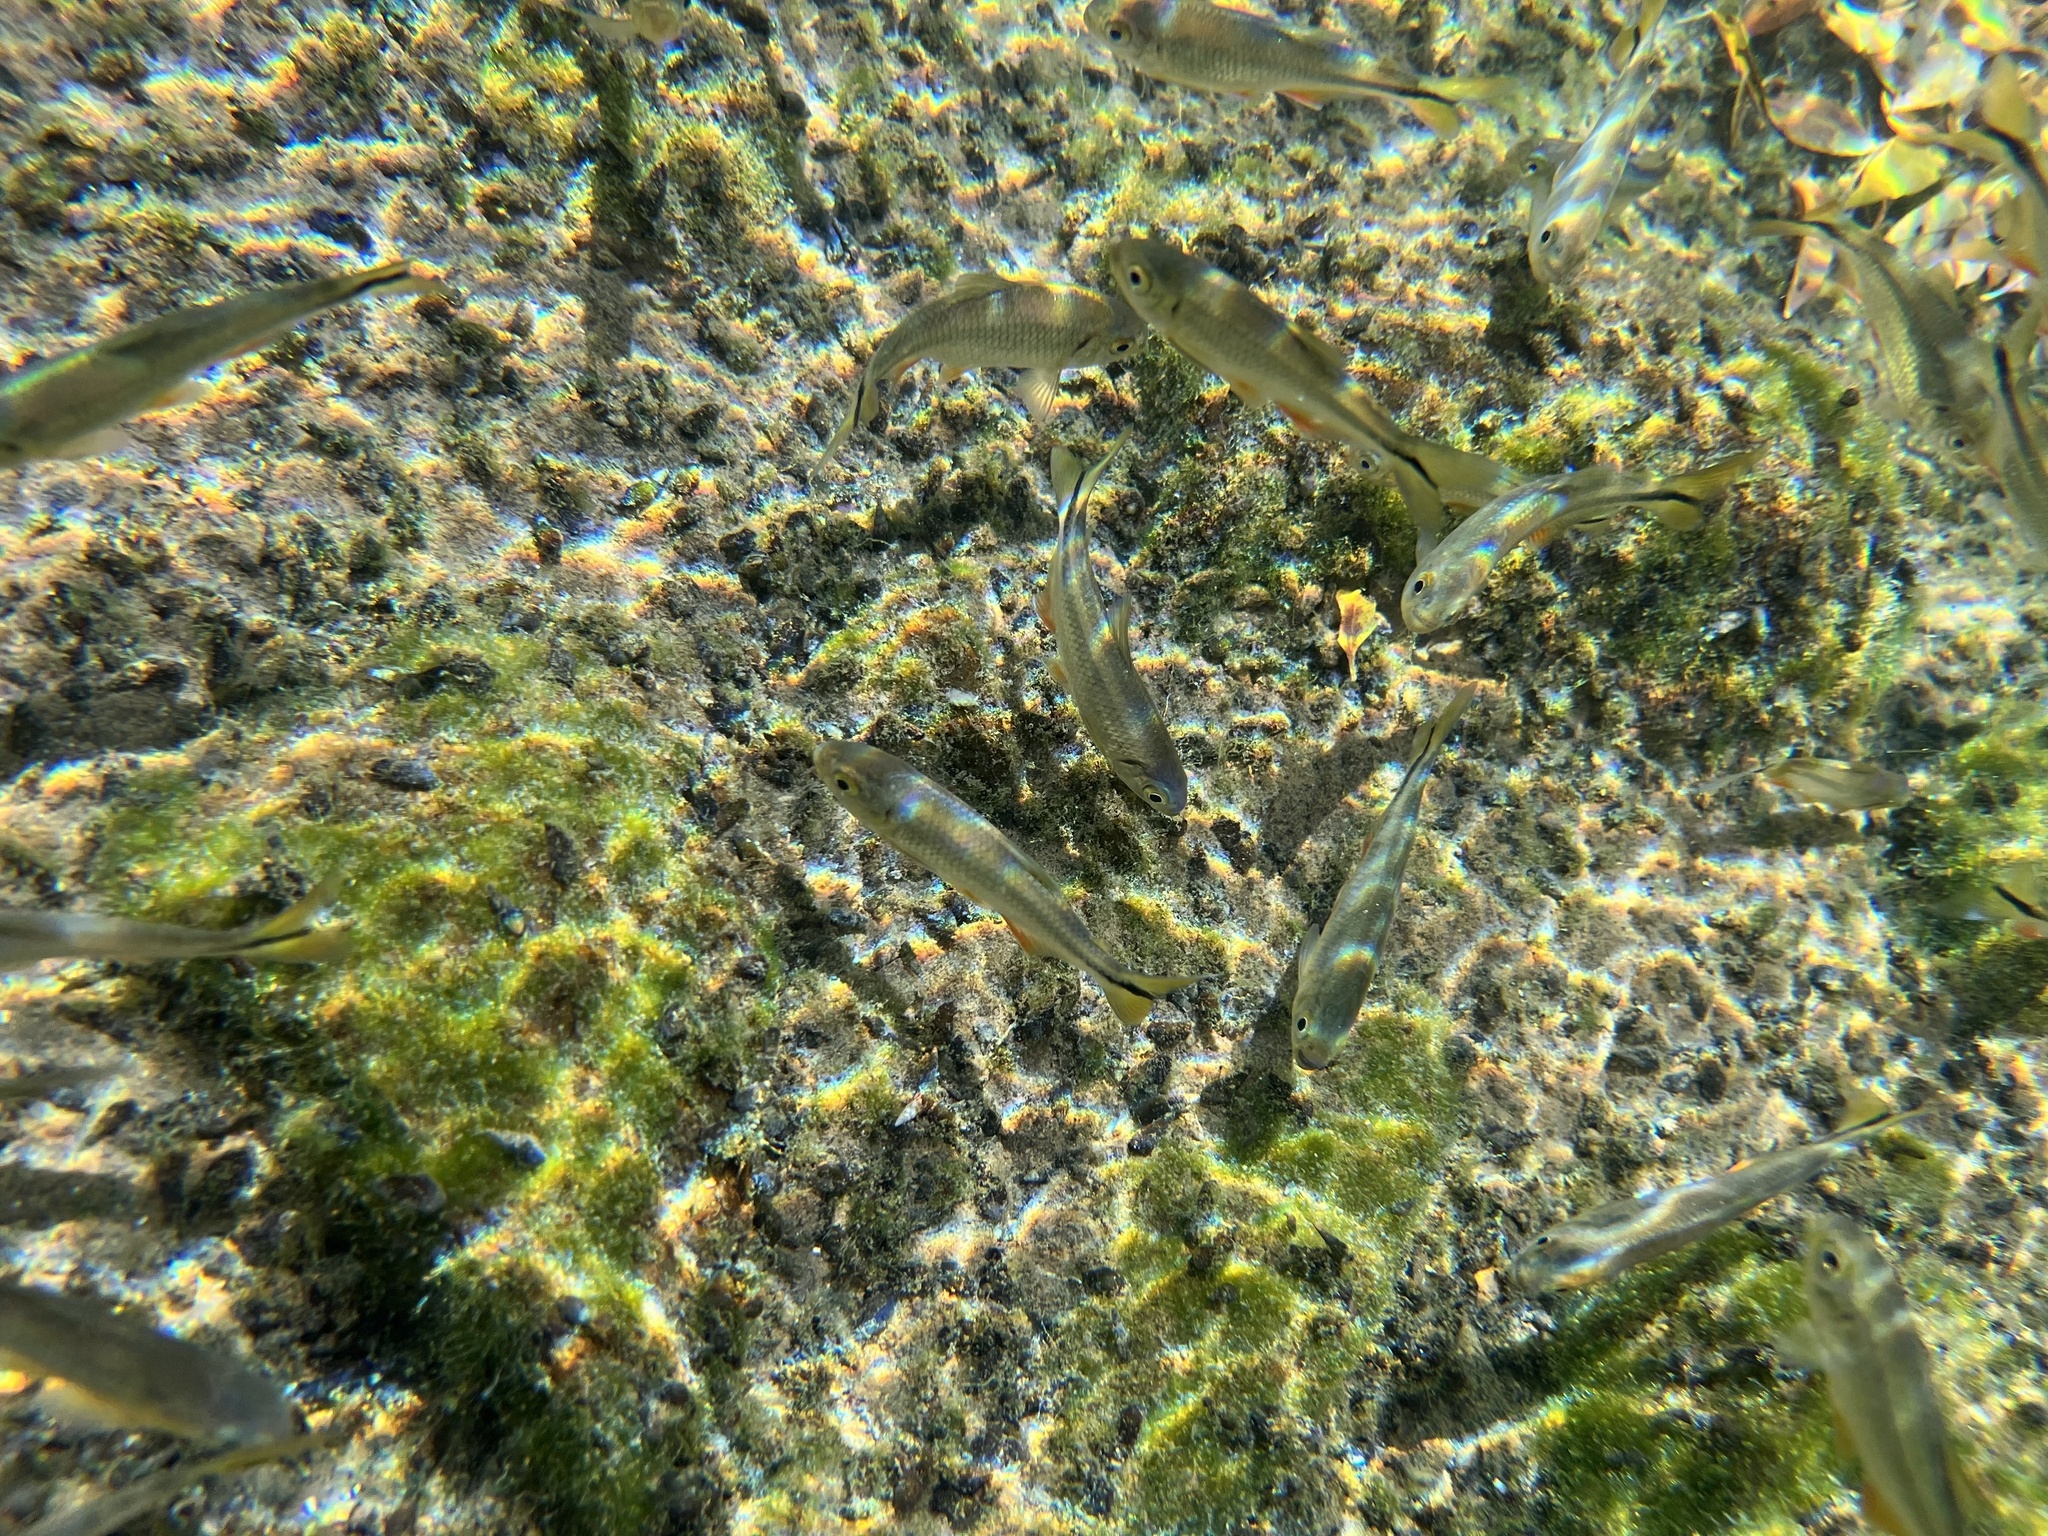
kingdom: Animalia
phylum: Chordata
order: Characiformes
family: Characidae
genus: Astyanax
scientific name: Astyanax mexicanus
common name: Mexican tetra
